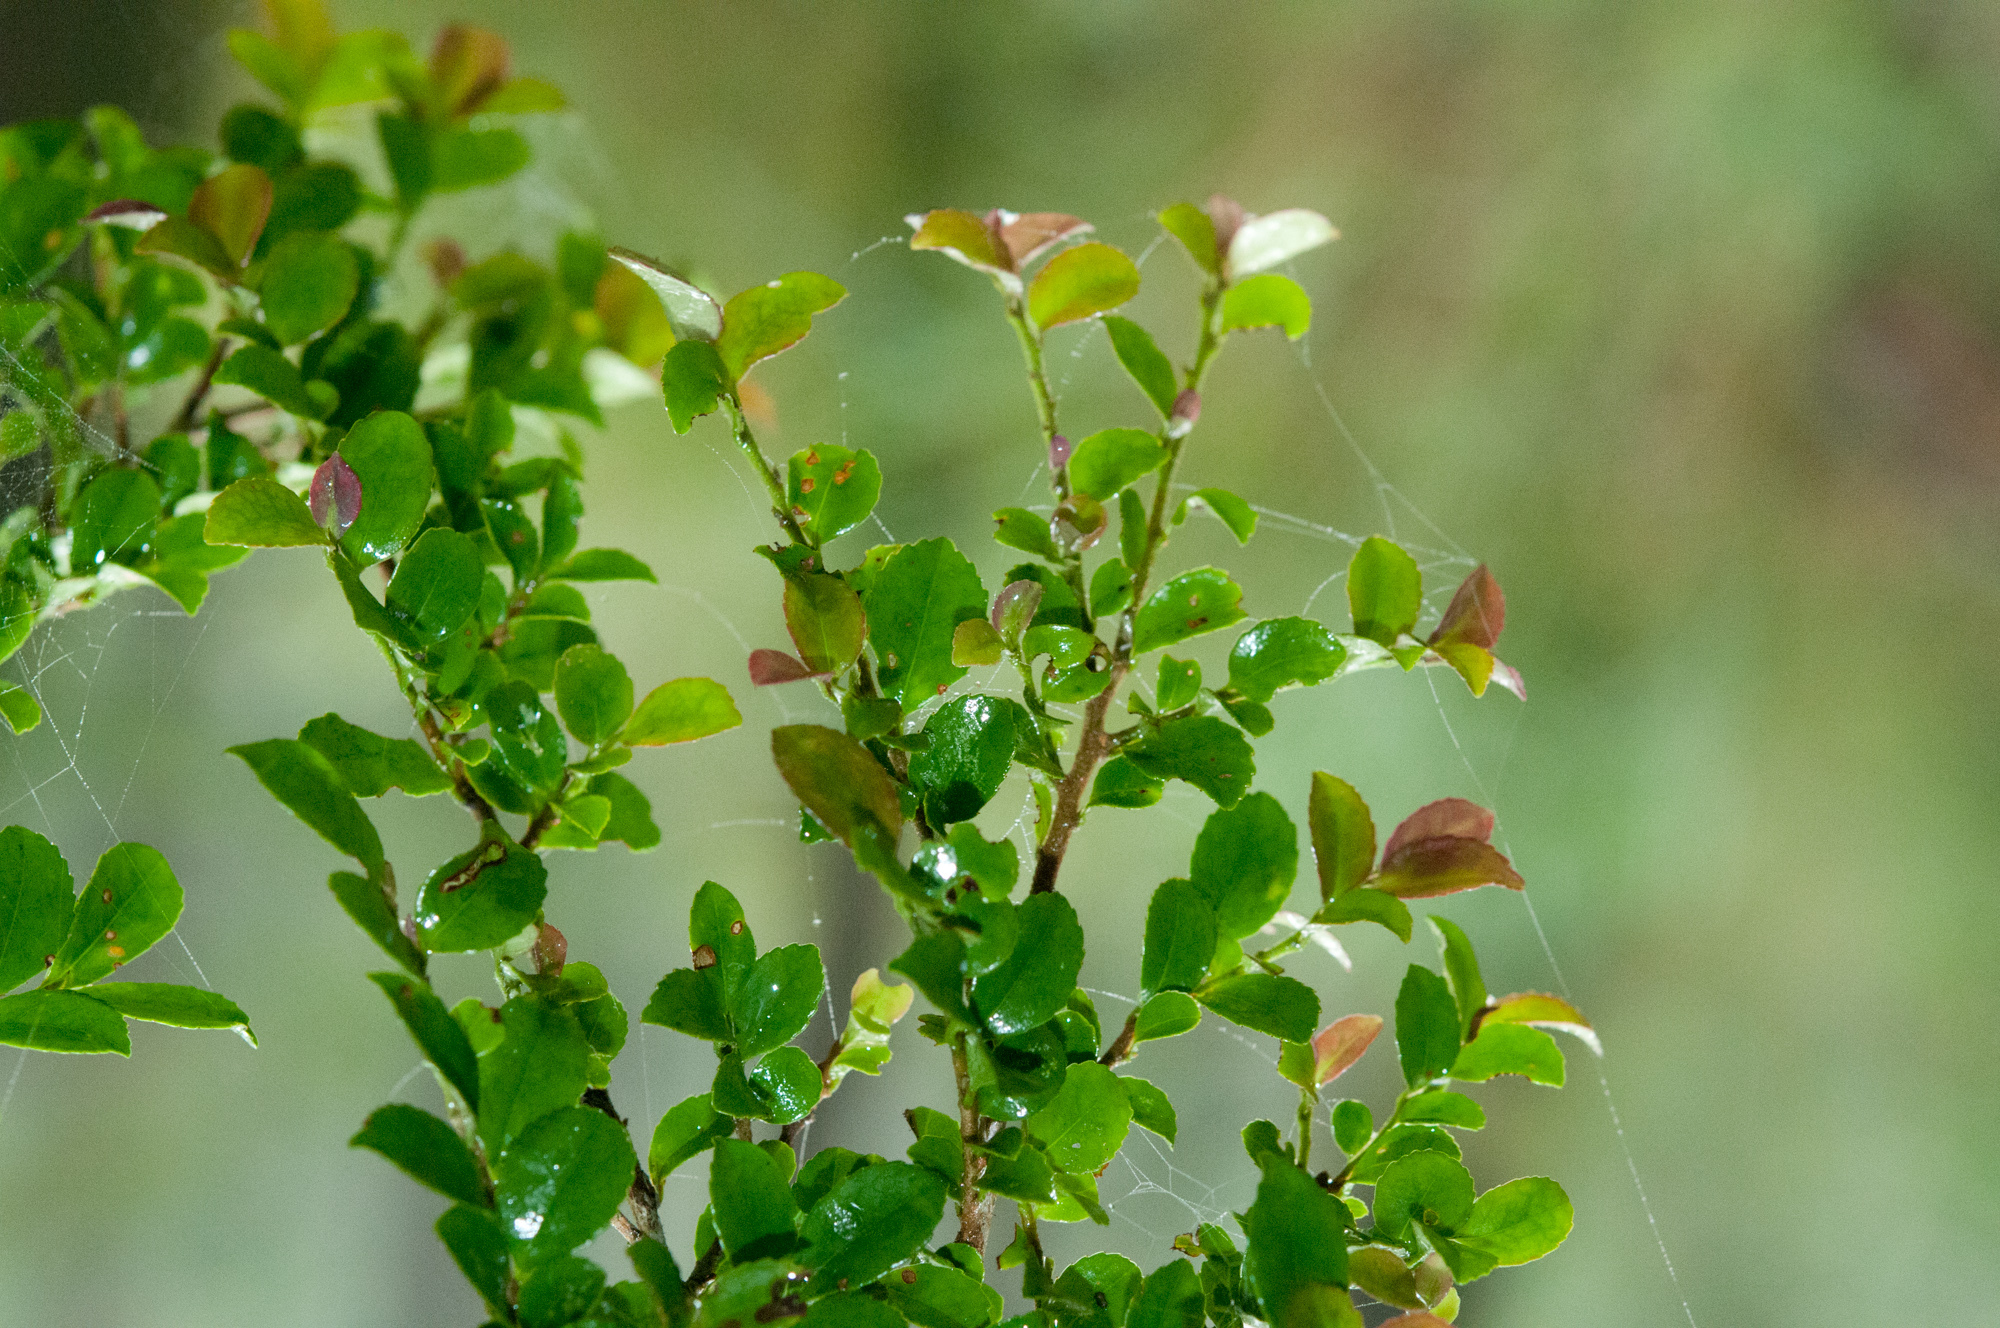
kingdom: Plantae
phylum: Tracheophyta
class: Magnoliopsida
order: Ericales
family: Pentaphylacaceae
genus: Eurya
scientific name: Eurya crenatifolia
